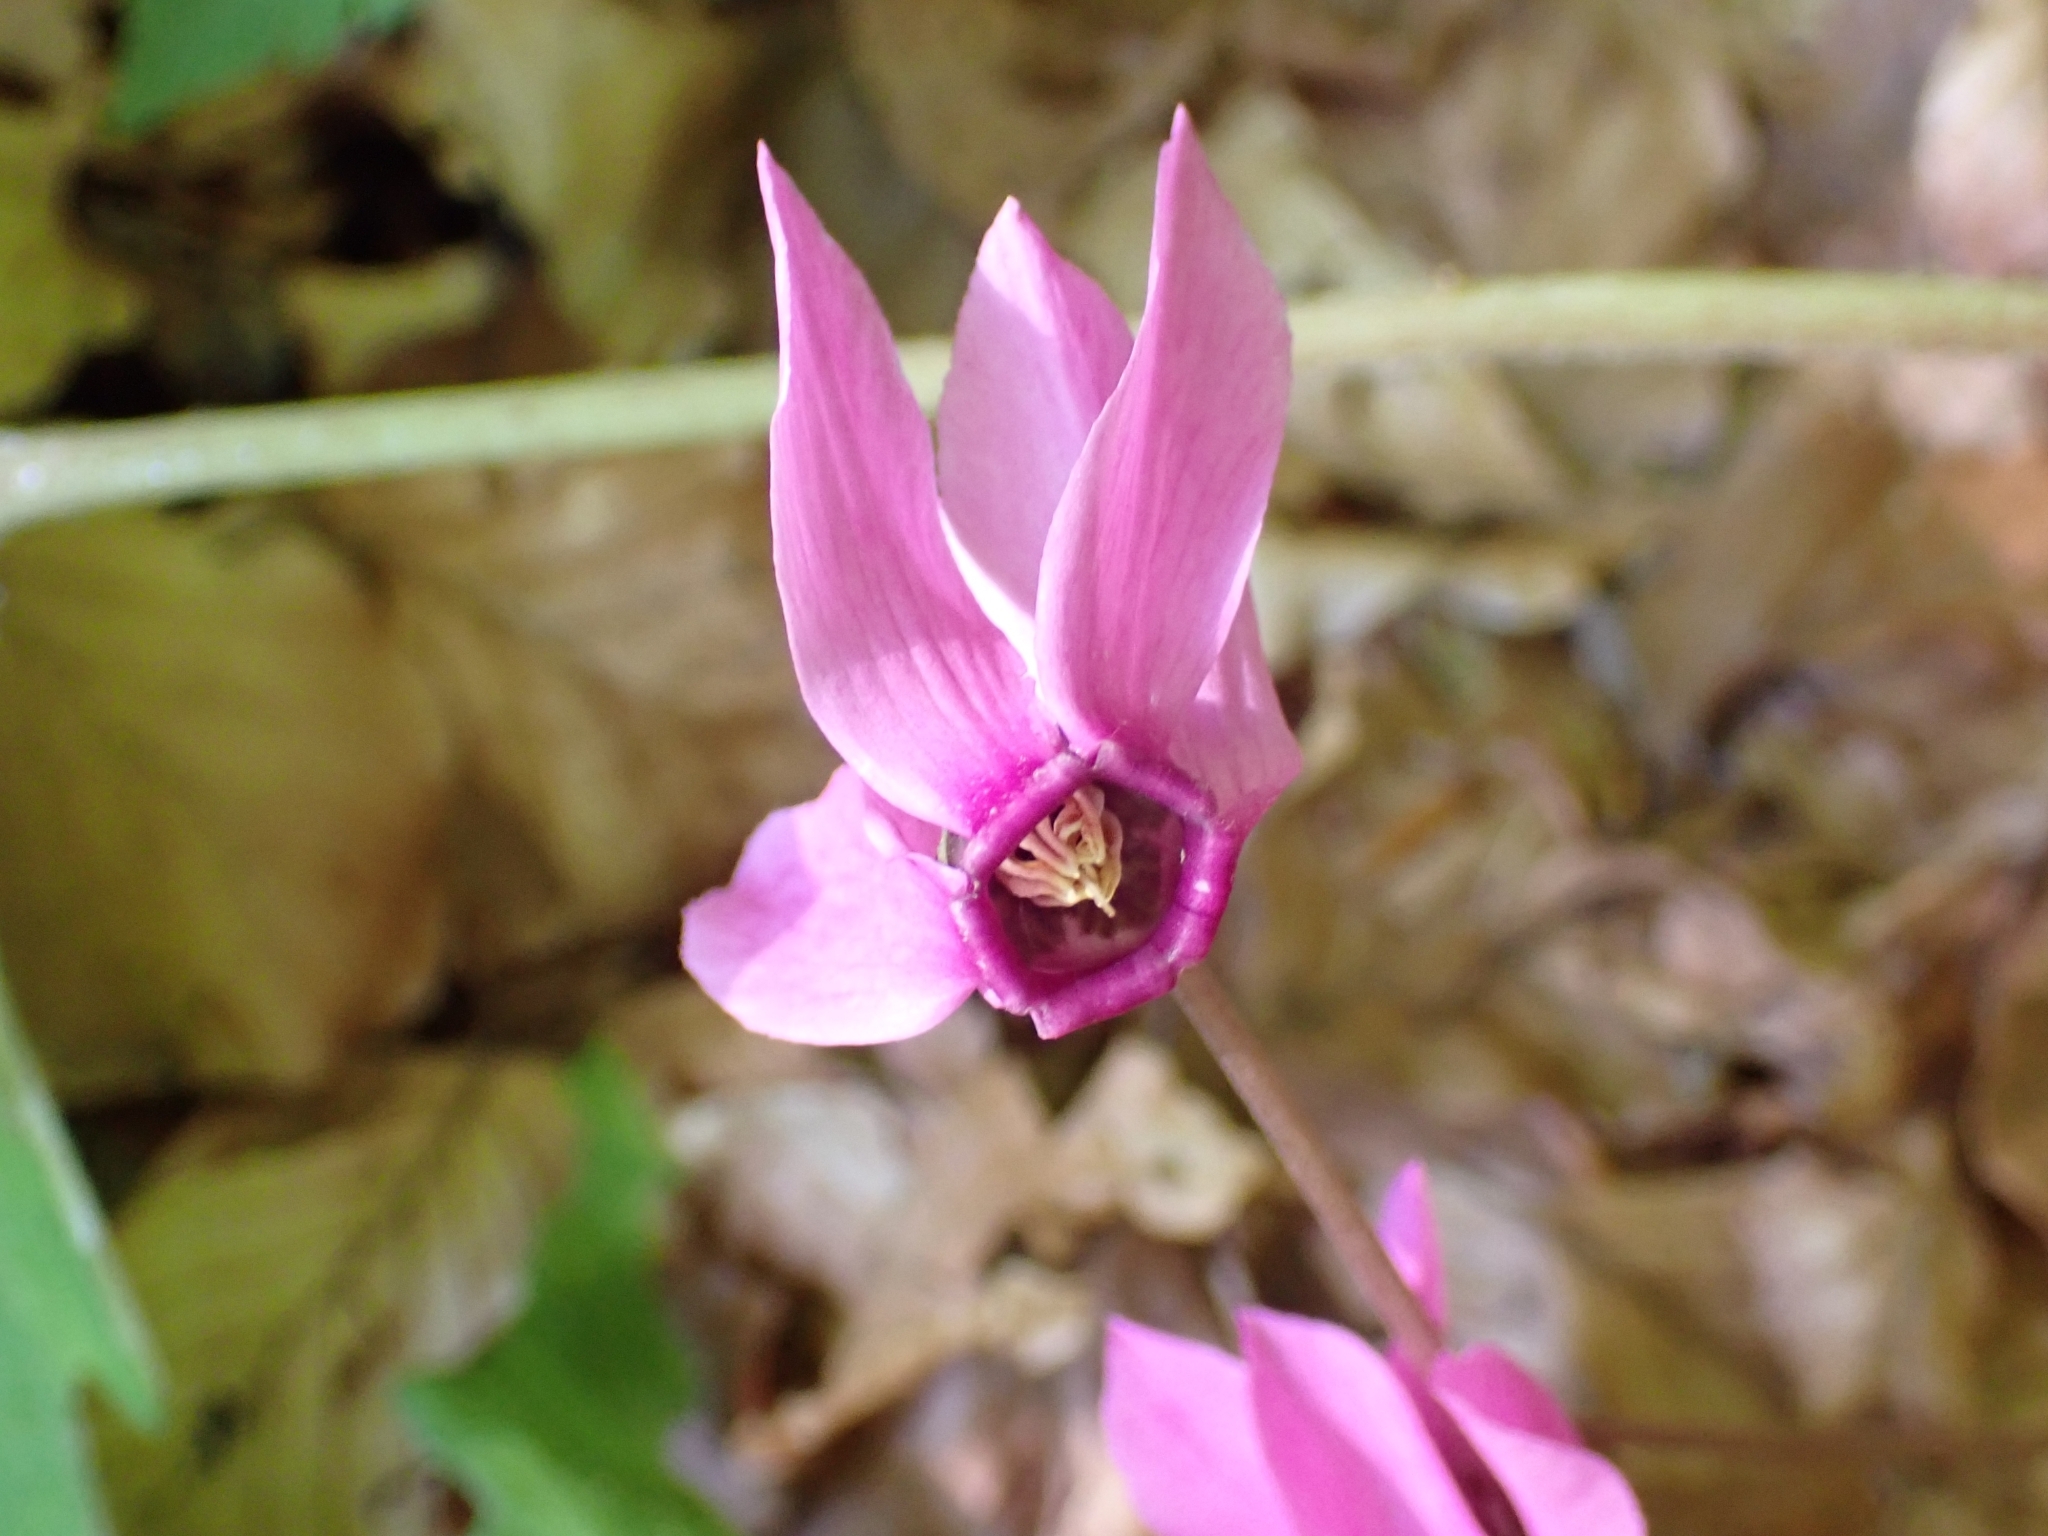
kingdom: Plantae
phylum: Tracheophyta
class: Magnoliopsida
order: Ericales
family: Primulaceae
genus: Cyclamen
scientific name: Cyclamen purpurascens
